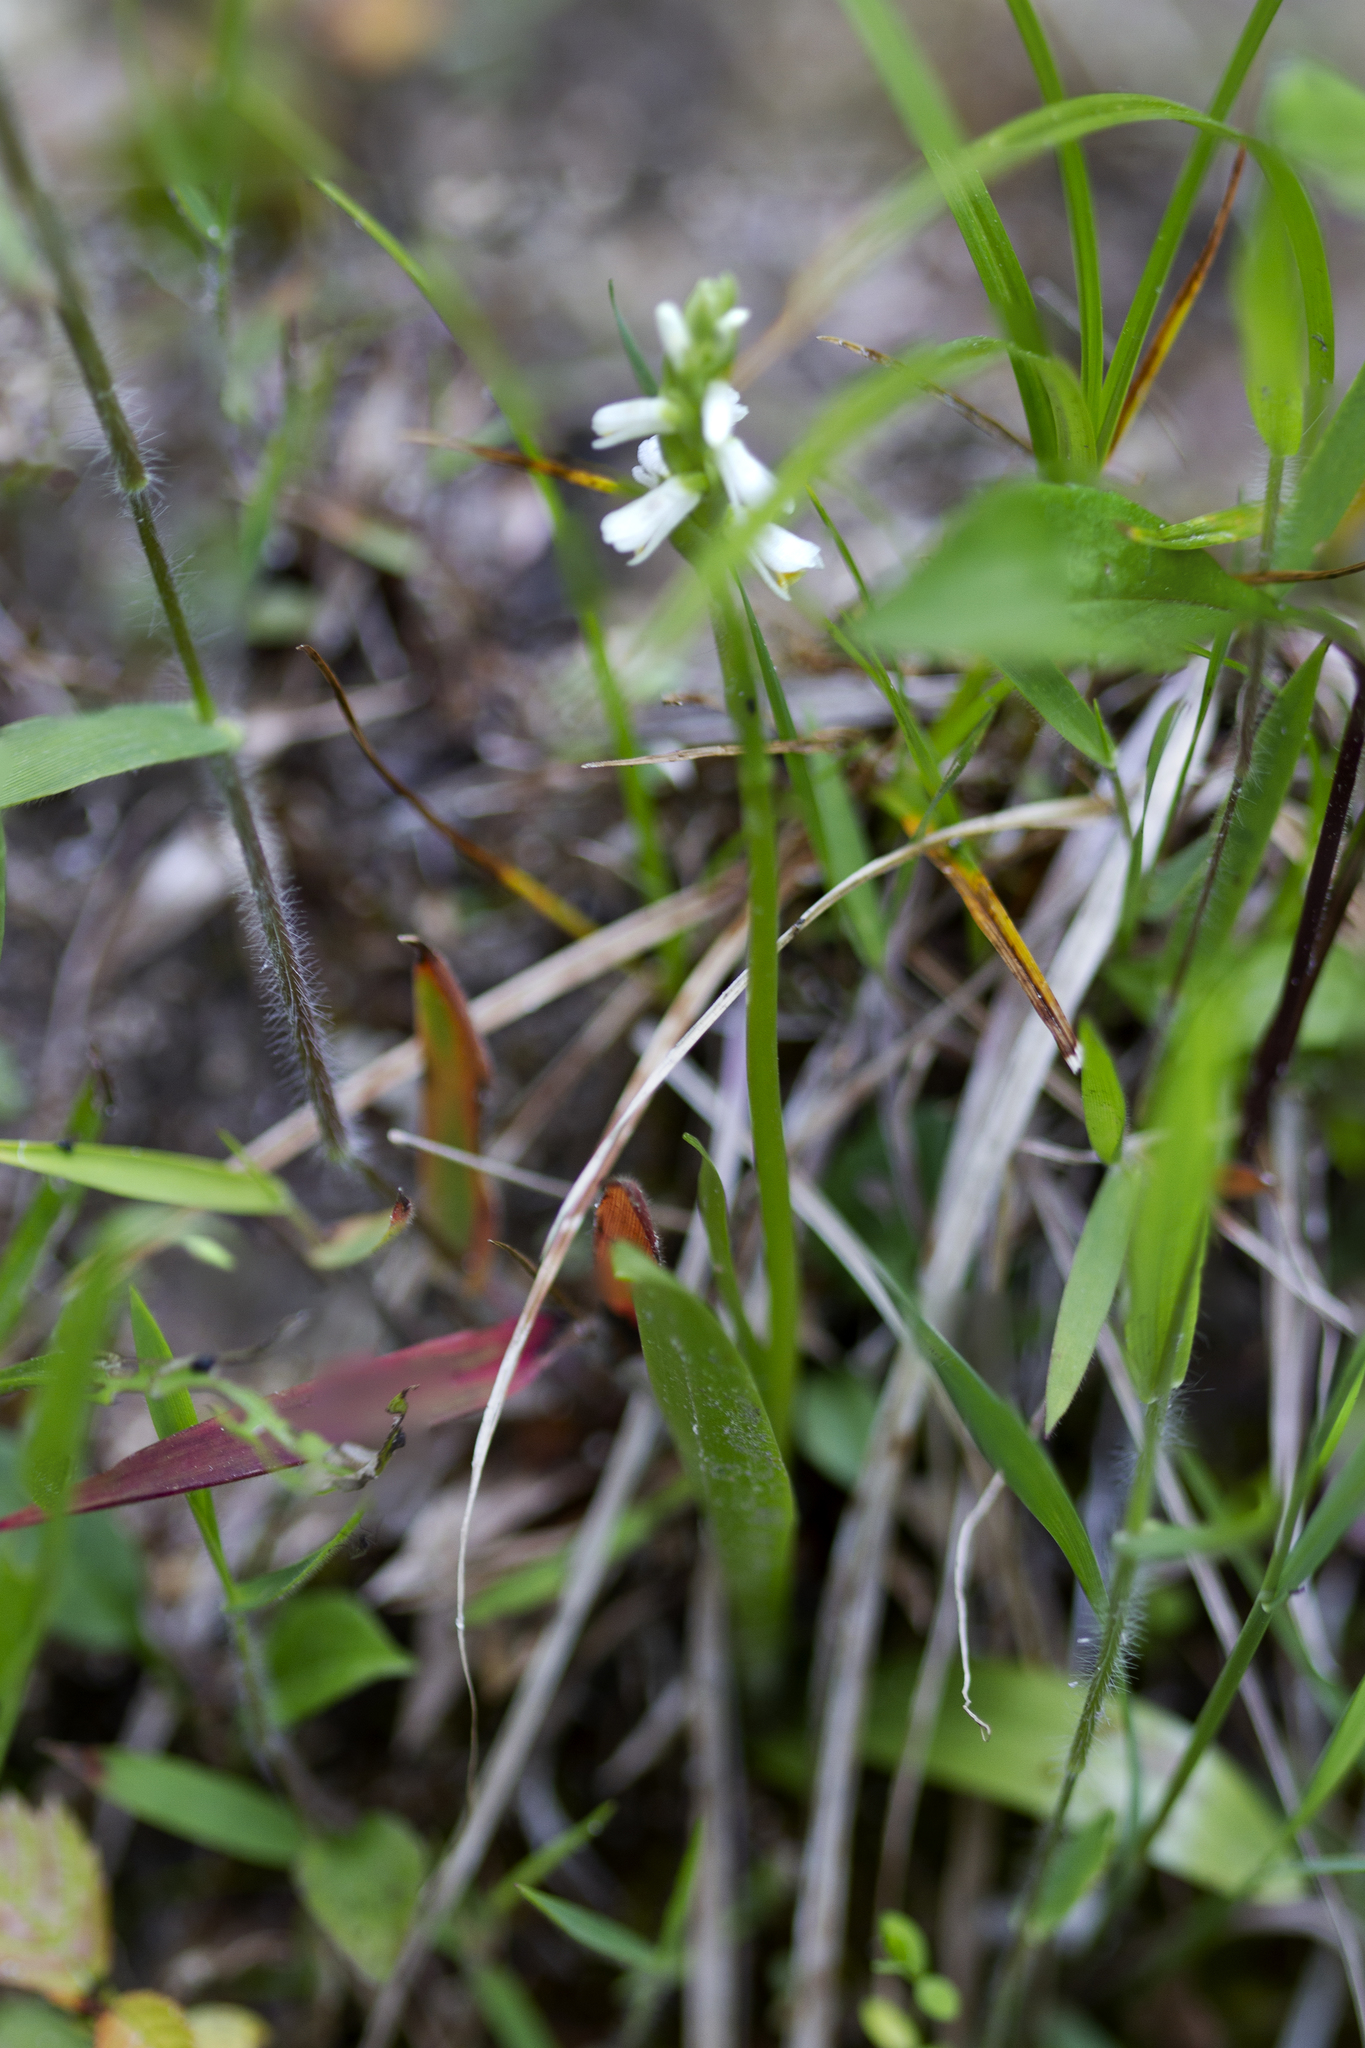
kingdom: Plantae
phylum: Tracheophyta
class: Liliopsida
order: Asparagales
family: Orchidaceae
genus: Spiranthes
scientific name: Spiranthes lucida
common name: Broad-leaved ladies'-tresses
